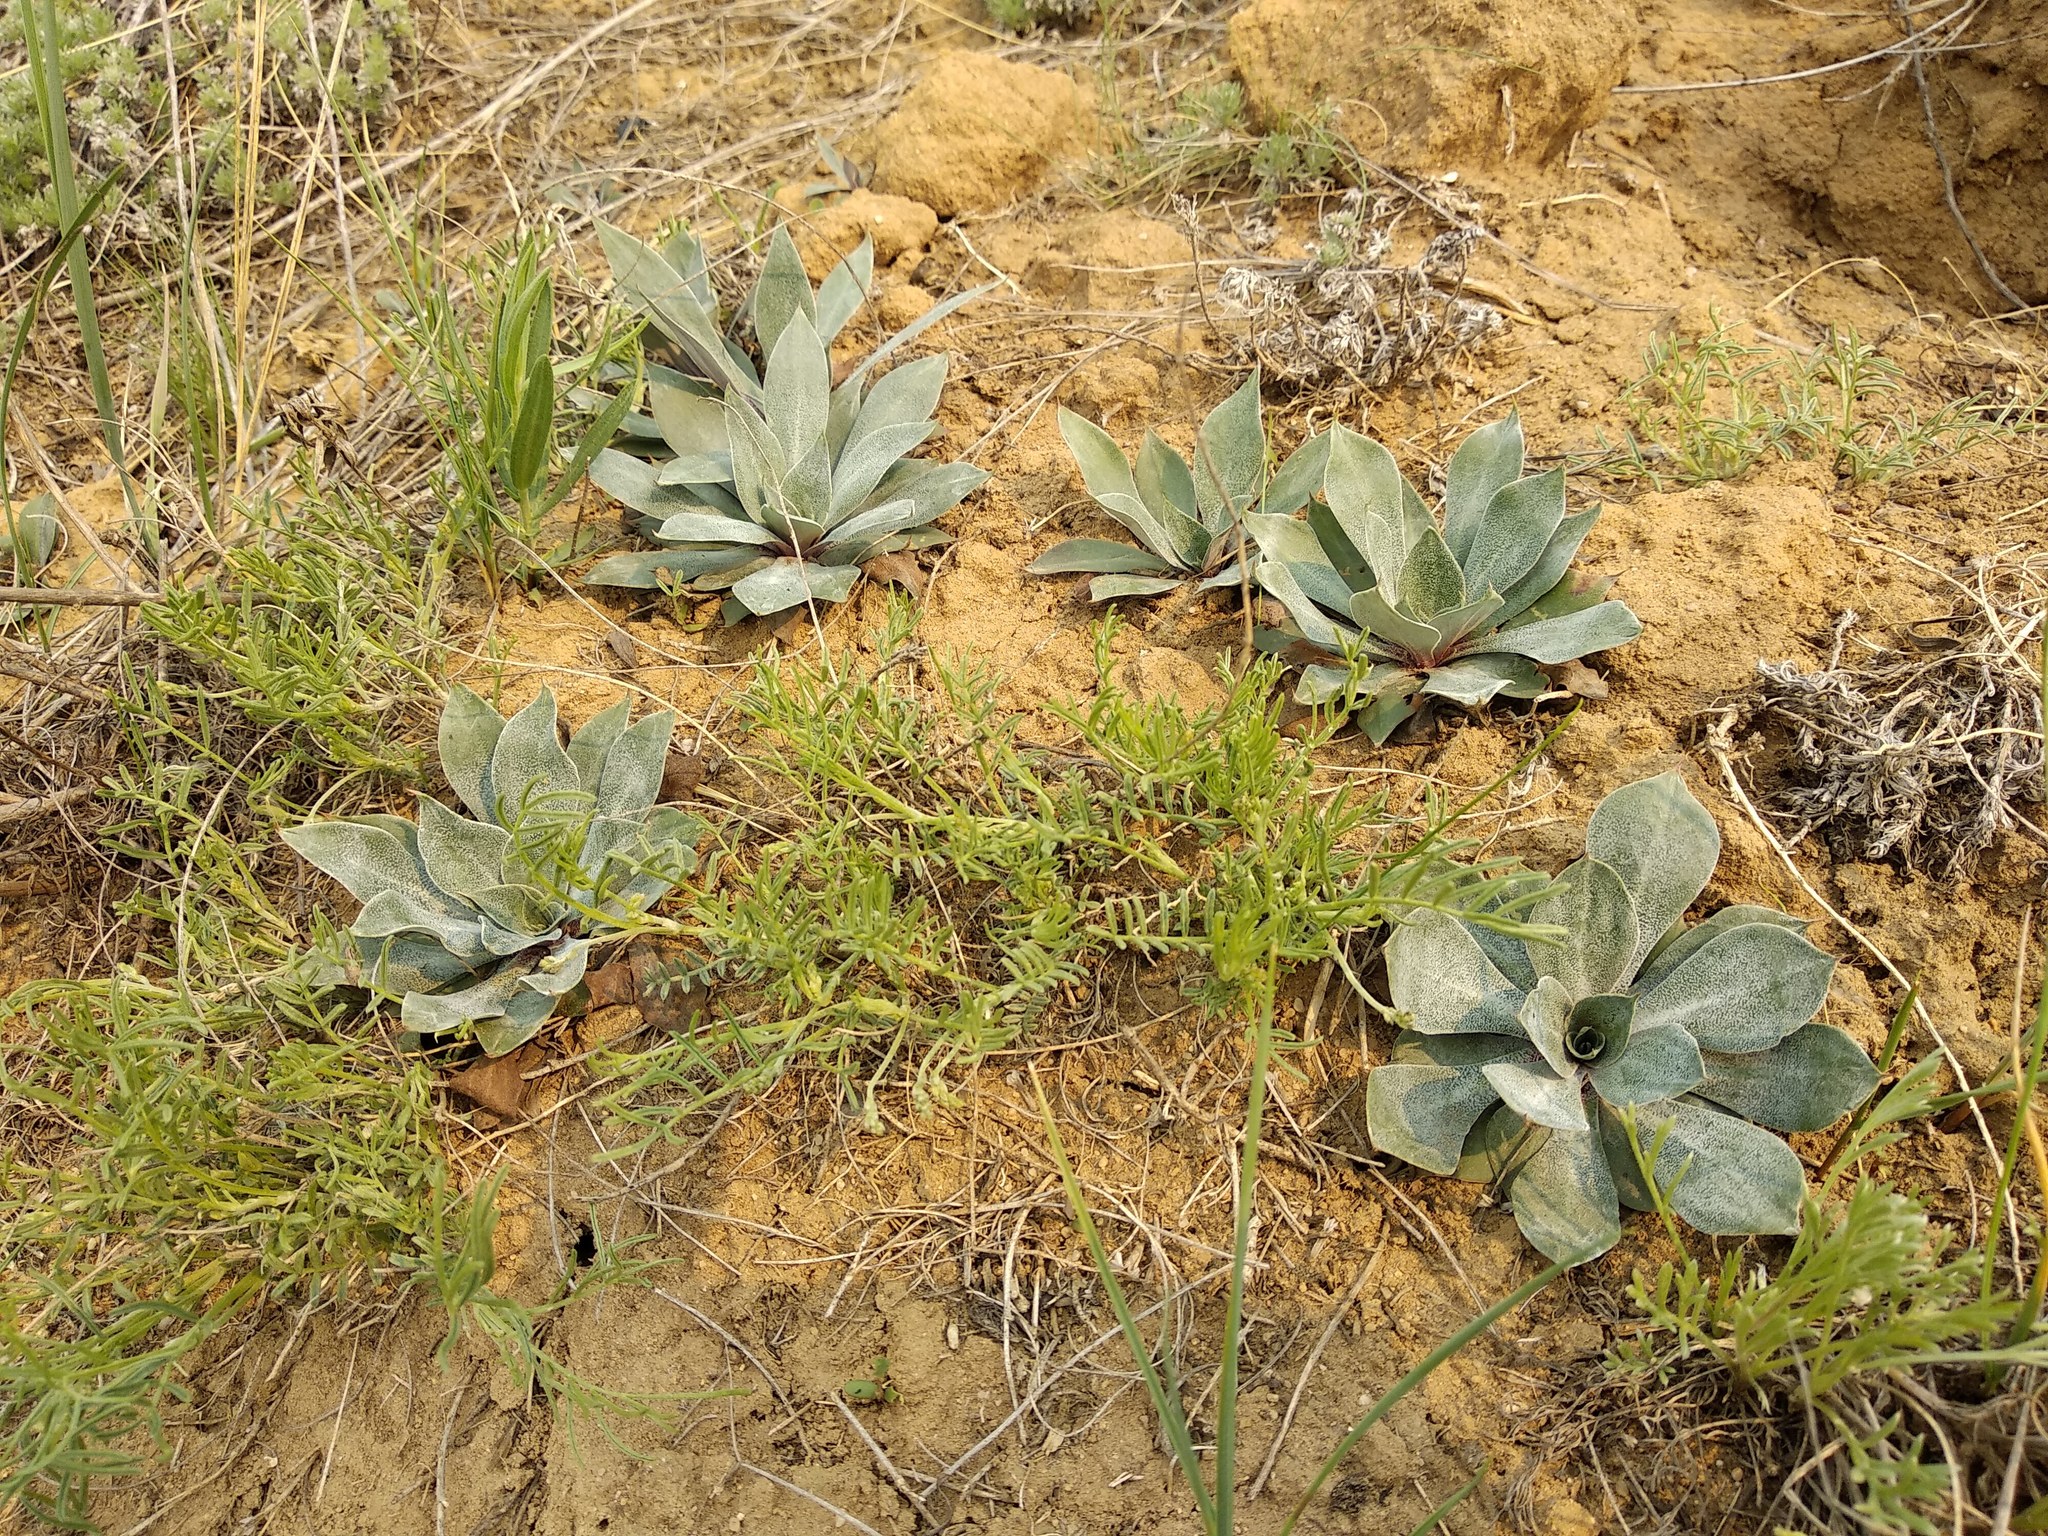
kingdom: Plantae
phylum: Tracheophyta
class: Magnoliopsida
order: Caryophyllales
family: Plumbaginaceae
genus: Goniolimon
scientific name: Goniolimon speciosum
